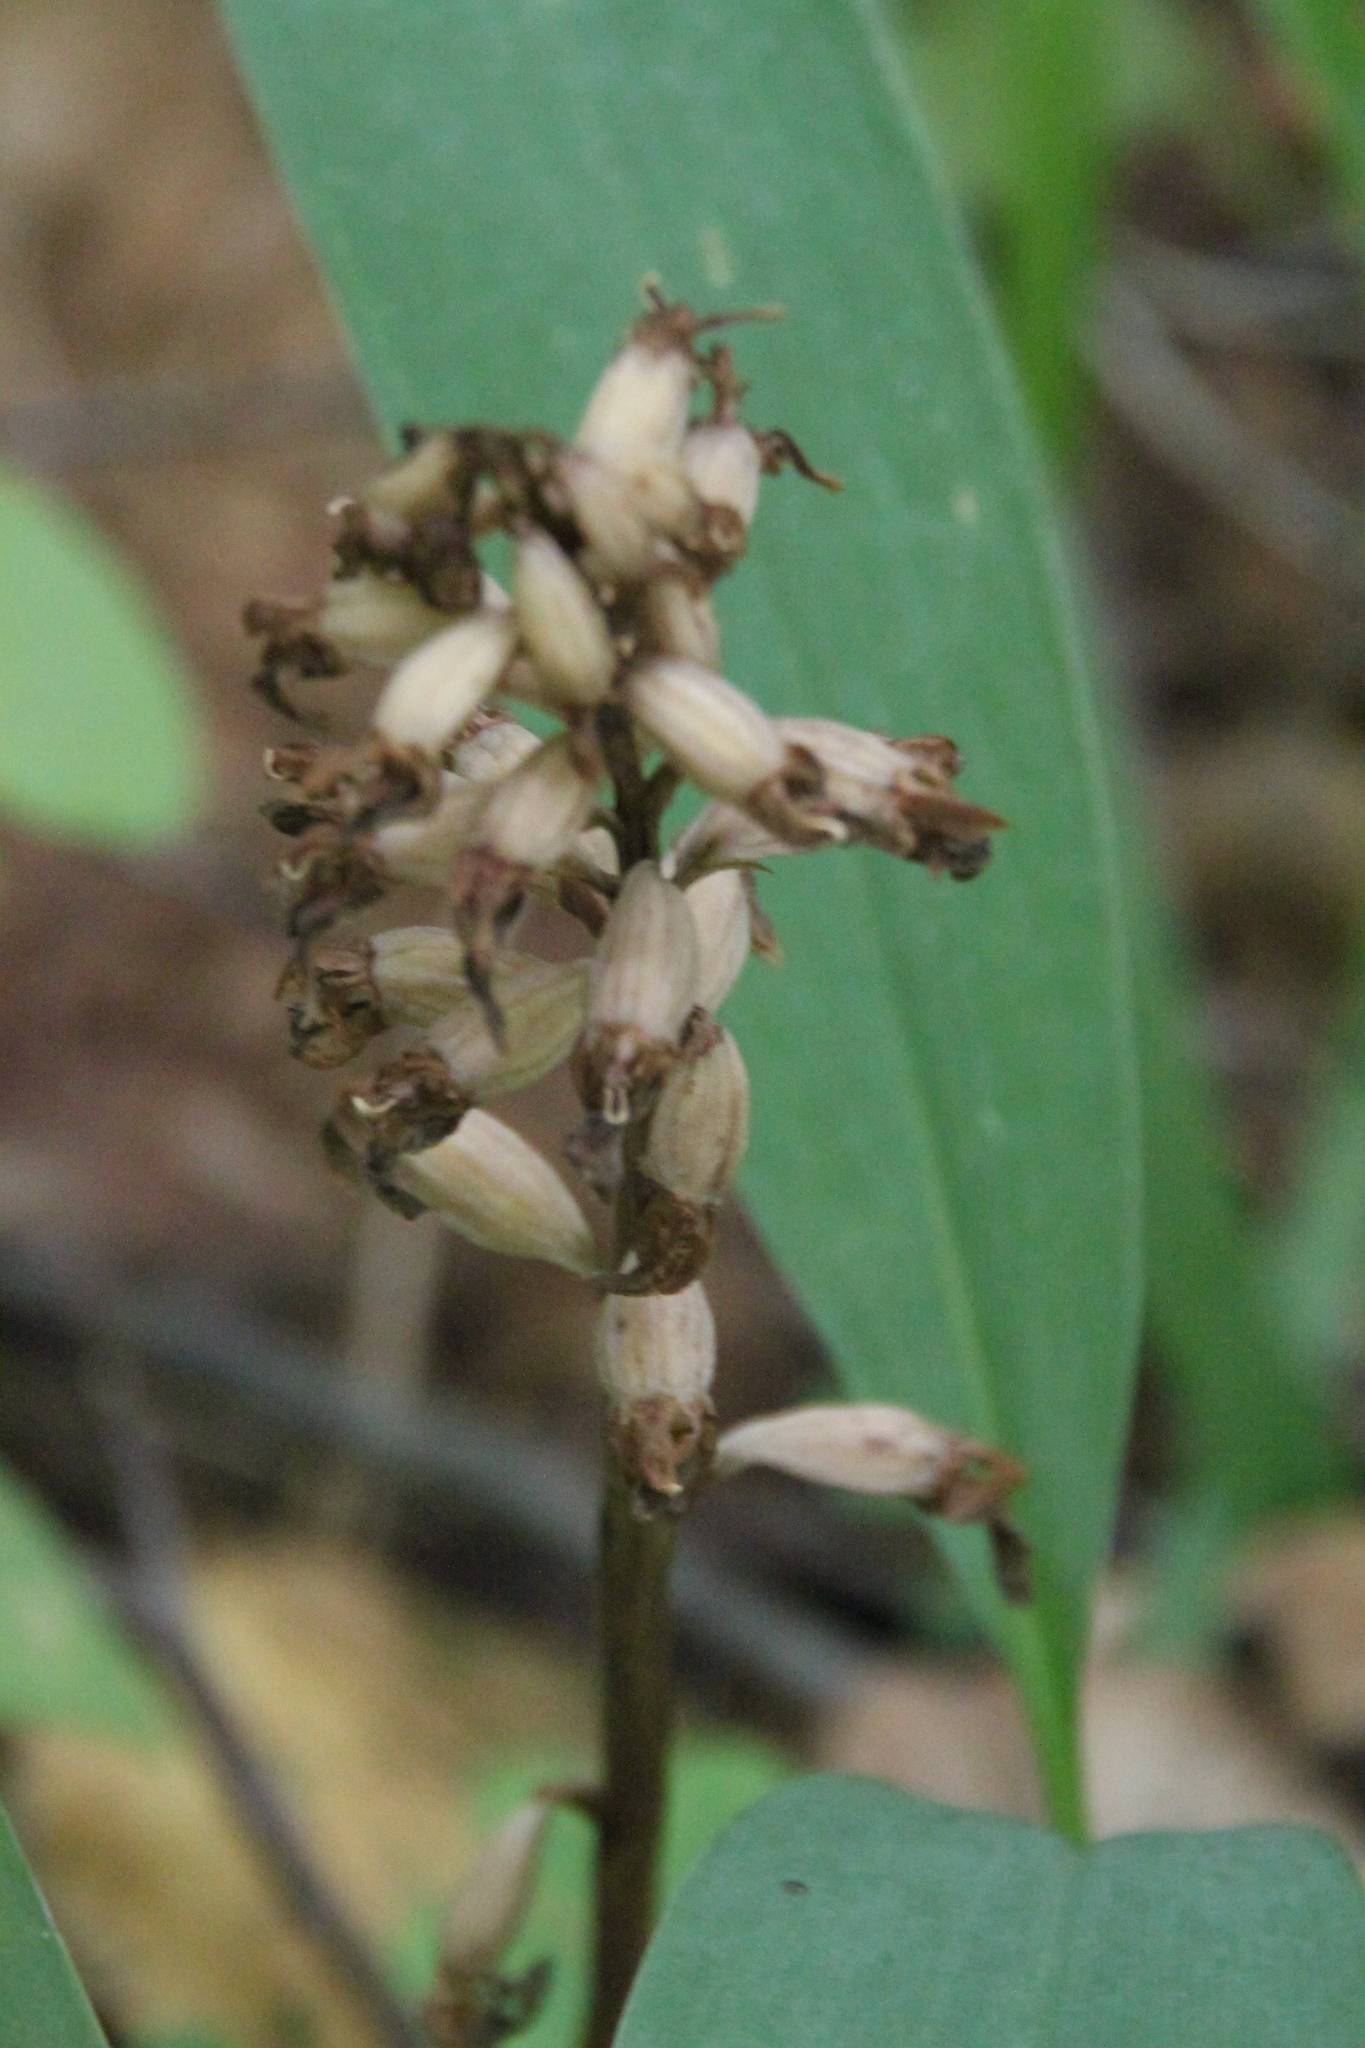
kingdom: Plantae
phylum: Tracheophyta
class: Liliopsida
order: Asparagales
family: Orchidaceae
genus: Neottia
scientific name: Neottia nidus-avis
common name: Bird's-nest orchid
